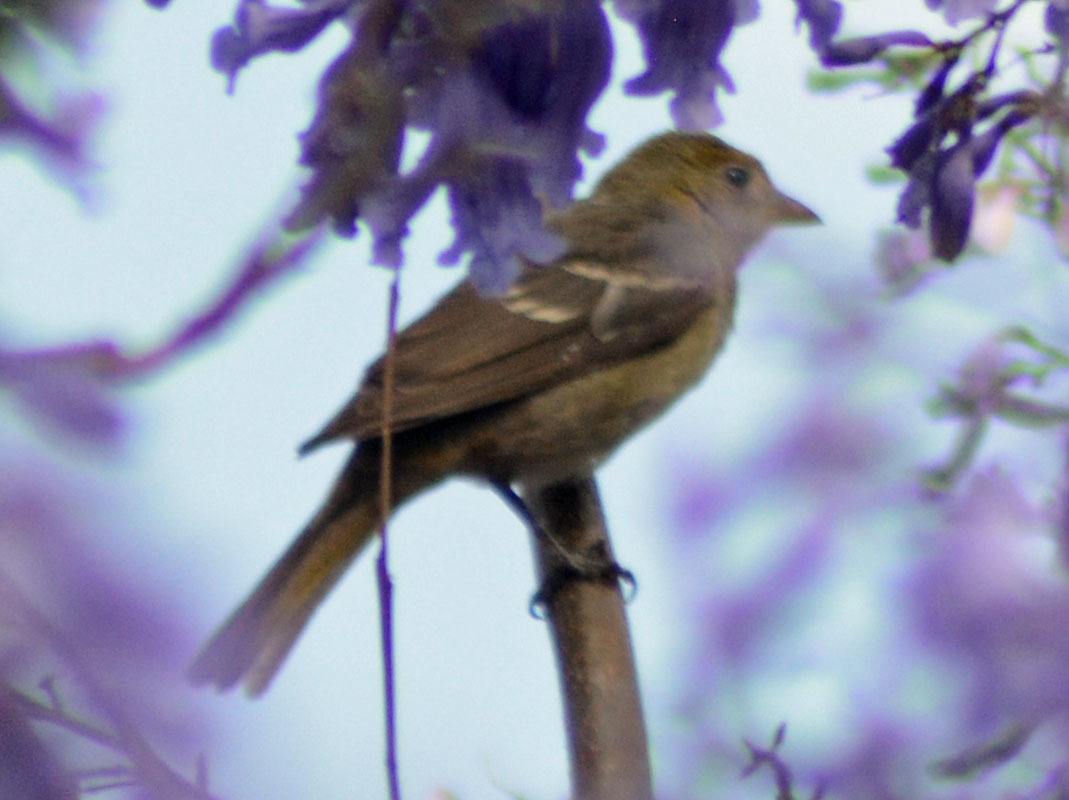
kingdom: Animalia
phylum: Chordata
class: Aves
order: Passeriformes
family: Cardinalidae
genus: Piranga
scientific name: Piranga ludoviciana
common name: Western tanager
